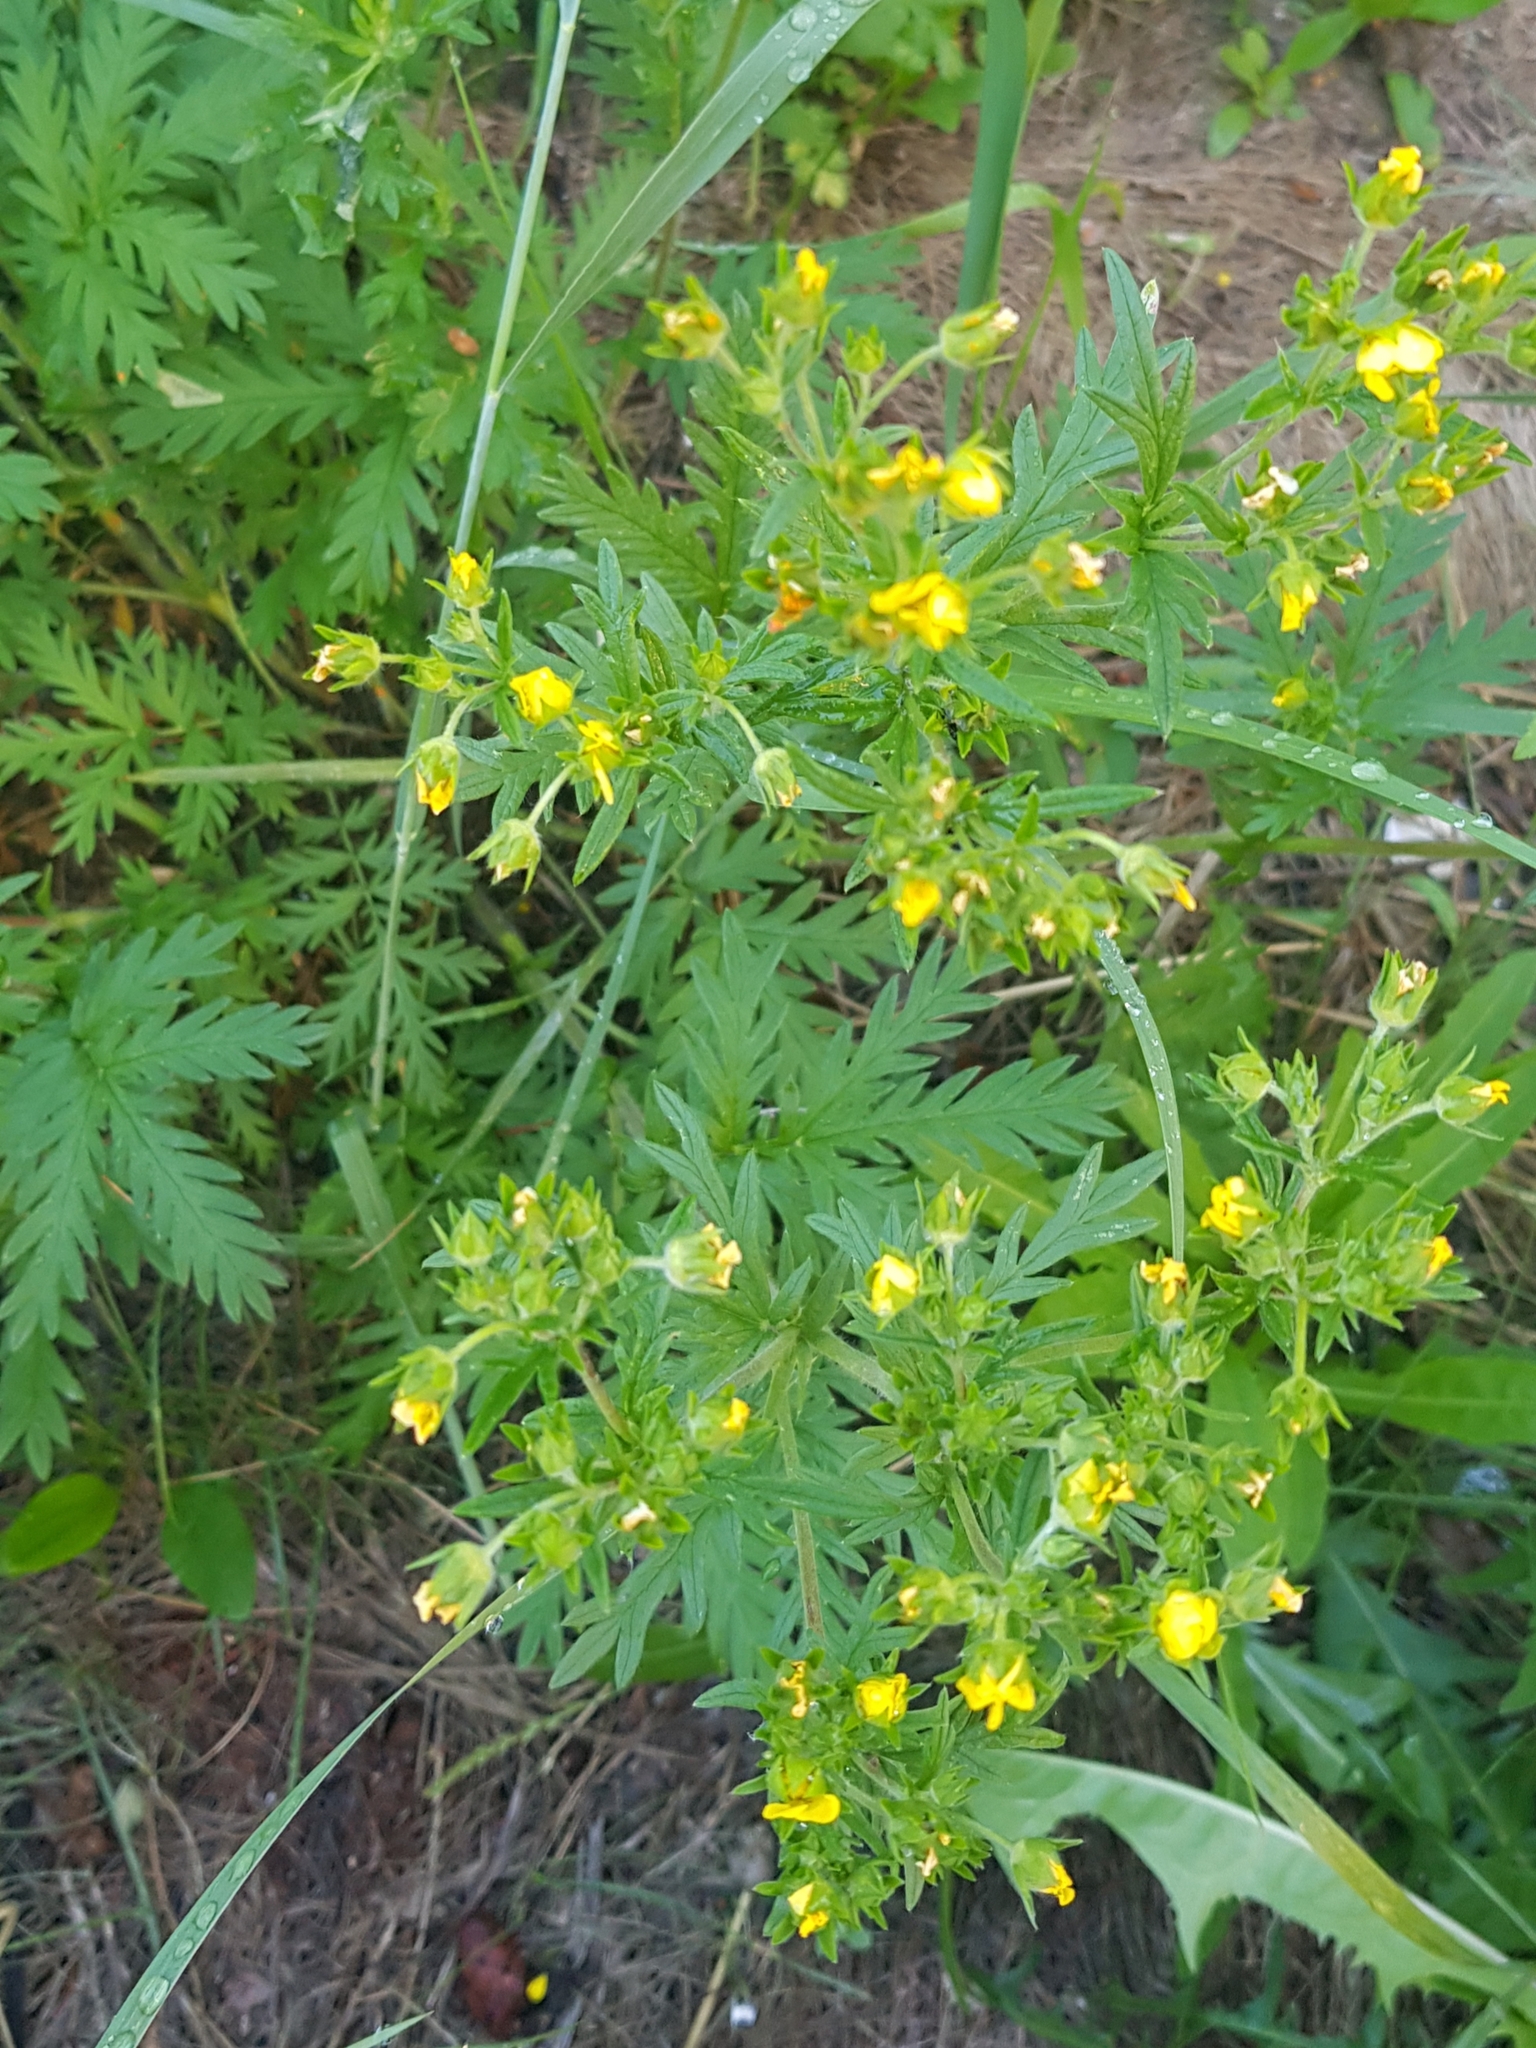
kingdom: Plantae
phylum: Tracheophyta
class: Magnoliopsida
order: Rosales
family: Rosaceae
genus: Potentilla
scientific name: Potentilla chalchorum
